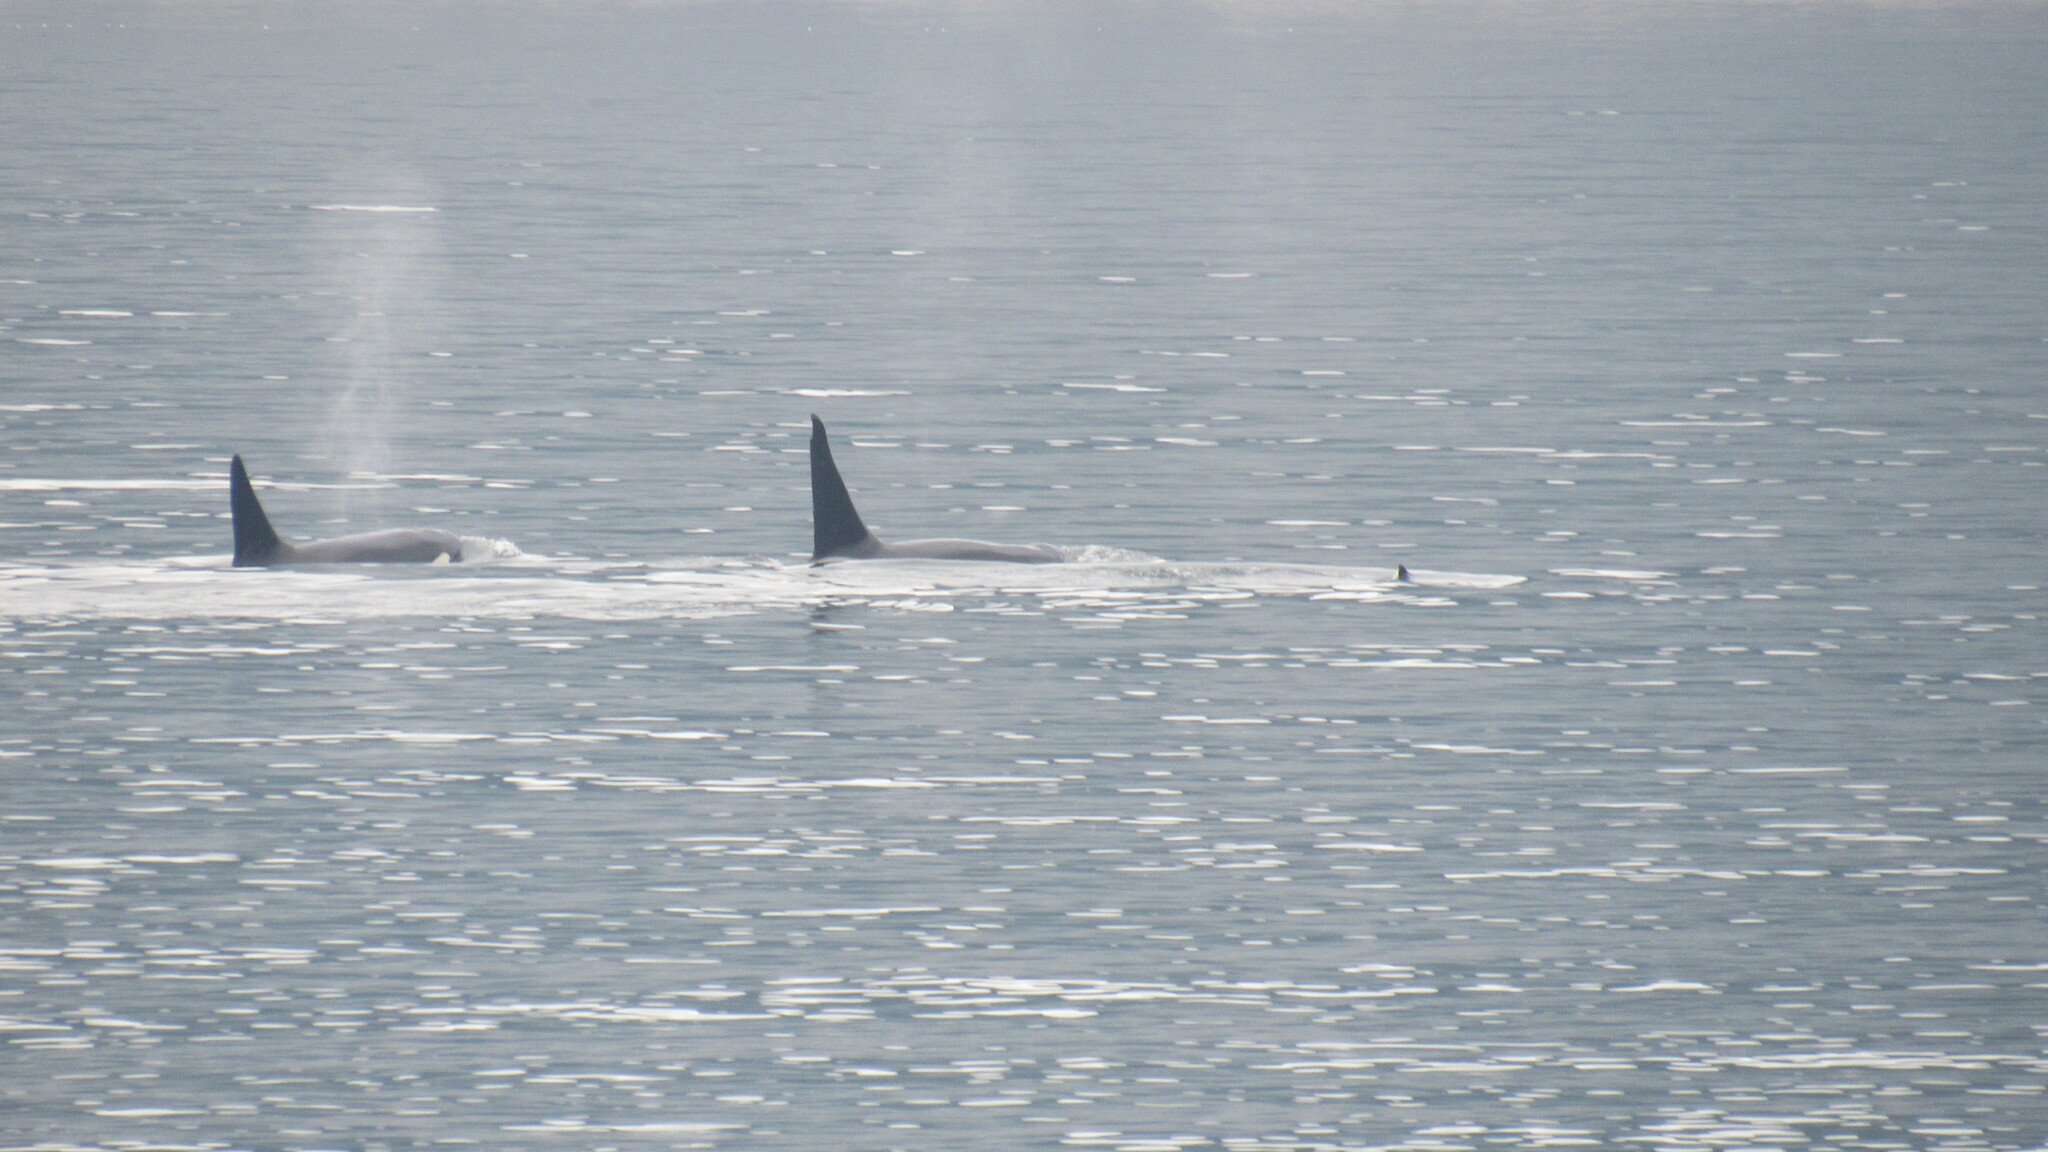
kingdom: Animalia
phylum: Chordata
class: Mammalia
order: Cetacea
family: Delphinidae
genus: Orcinus
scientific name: Orcinus orca
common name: Killer whale
